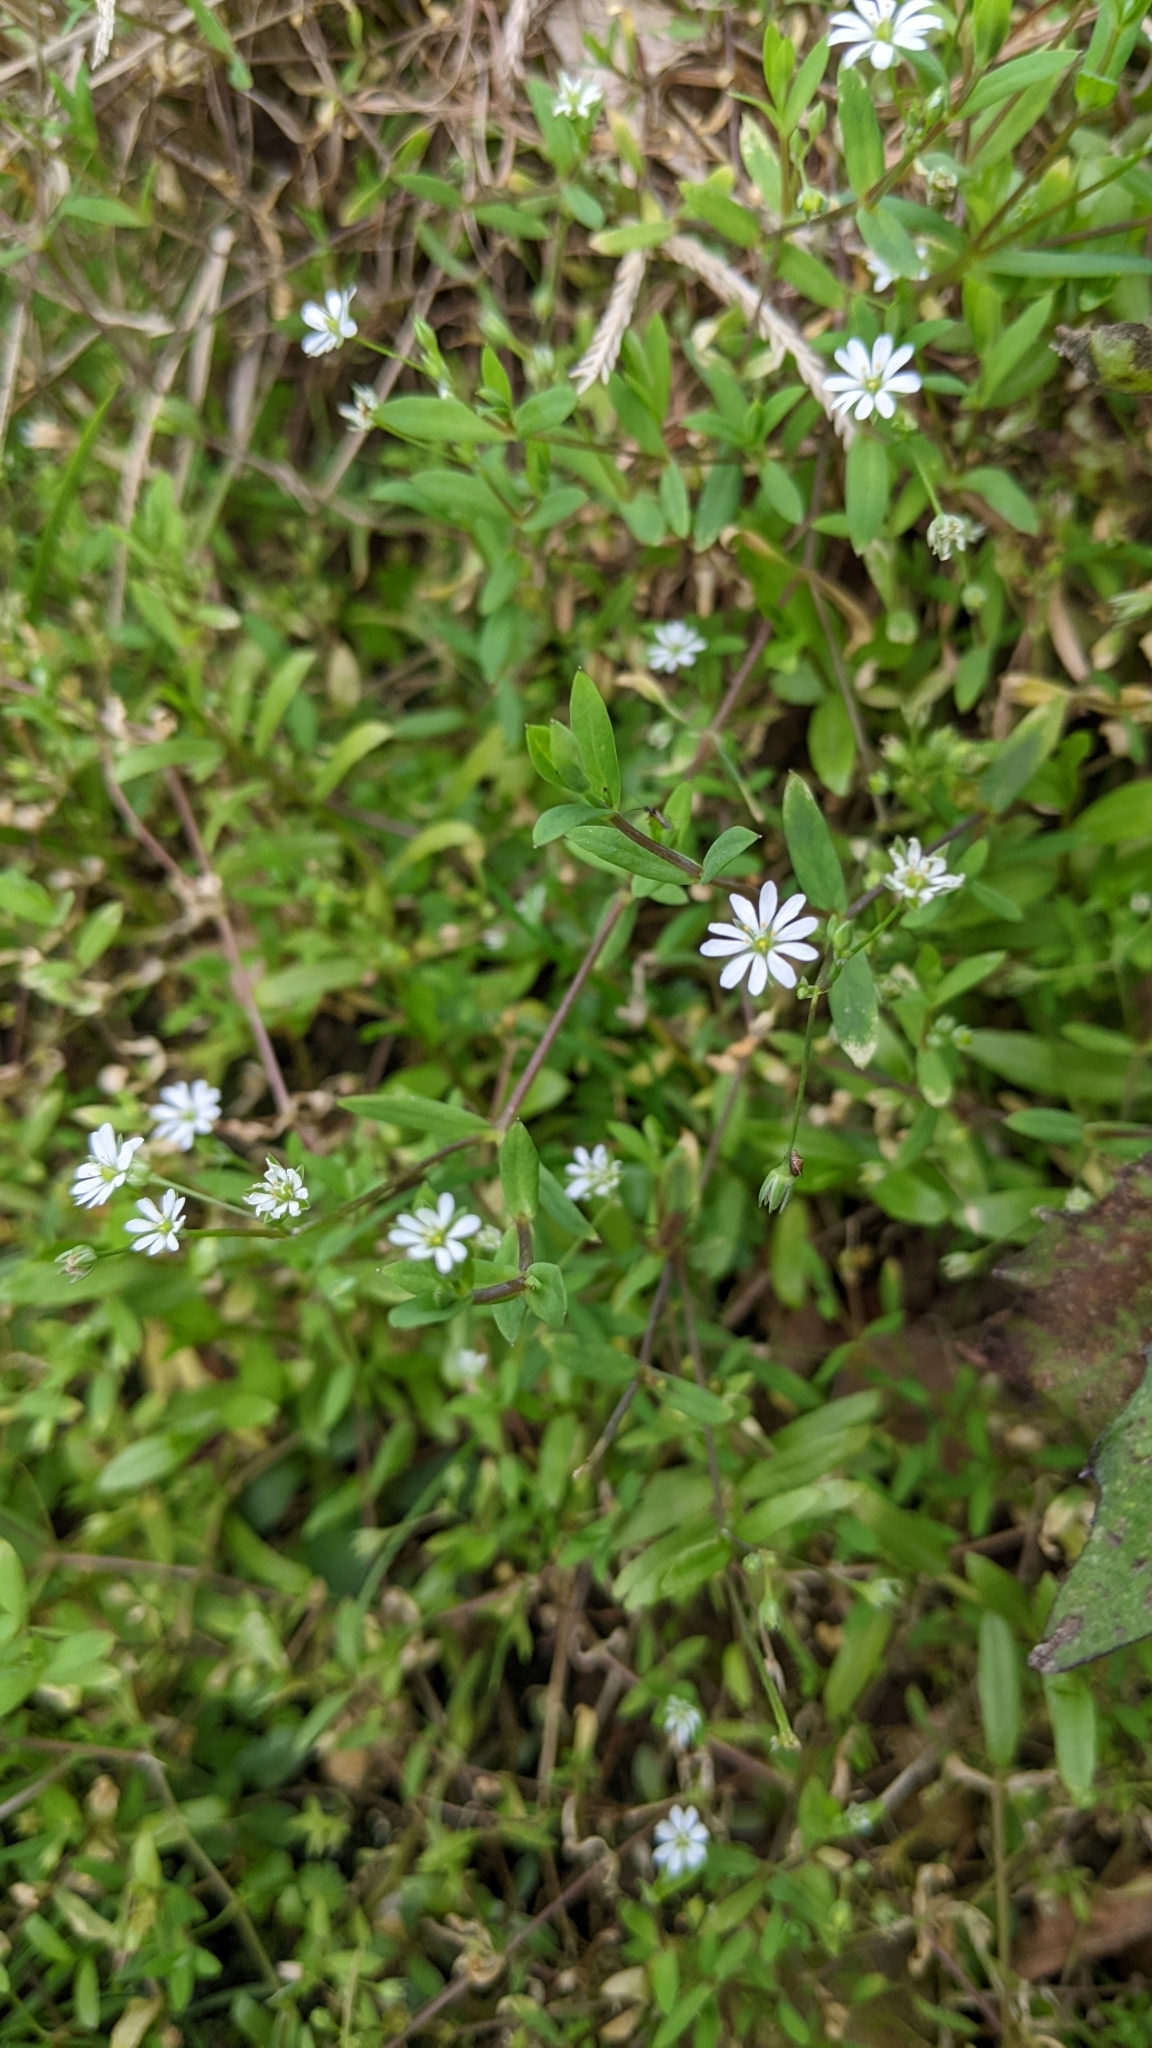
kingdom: Plantae
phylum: Tracheophyta
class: Magnoliopsida
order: Caryophyllales
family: Caryophyllaceae
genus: Stellaria
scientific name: Stellaria alsine
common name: Bog stitchwort
